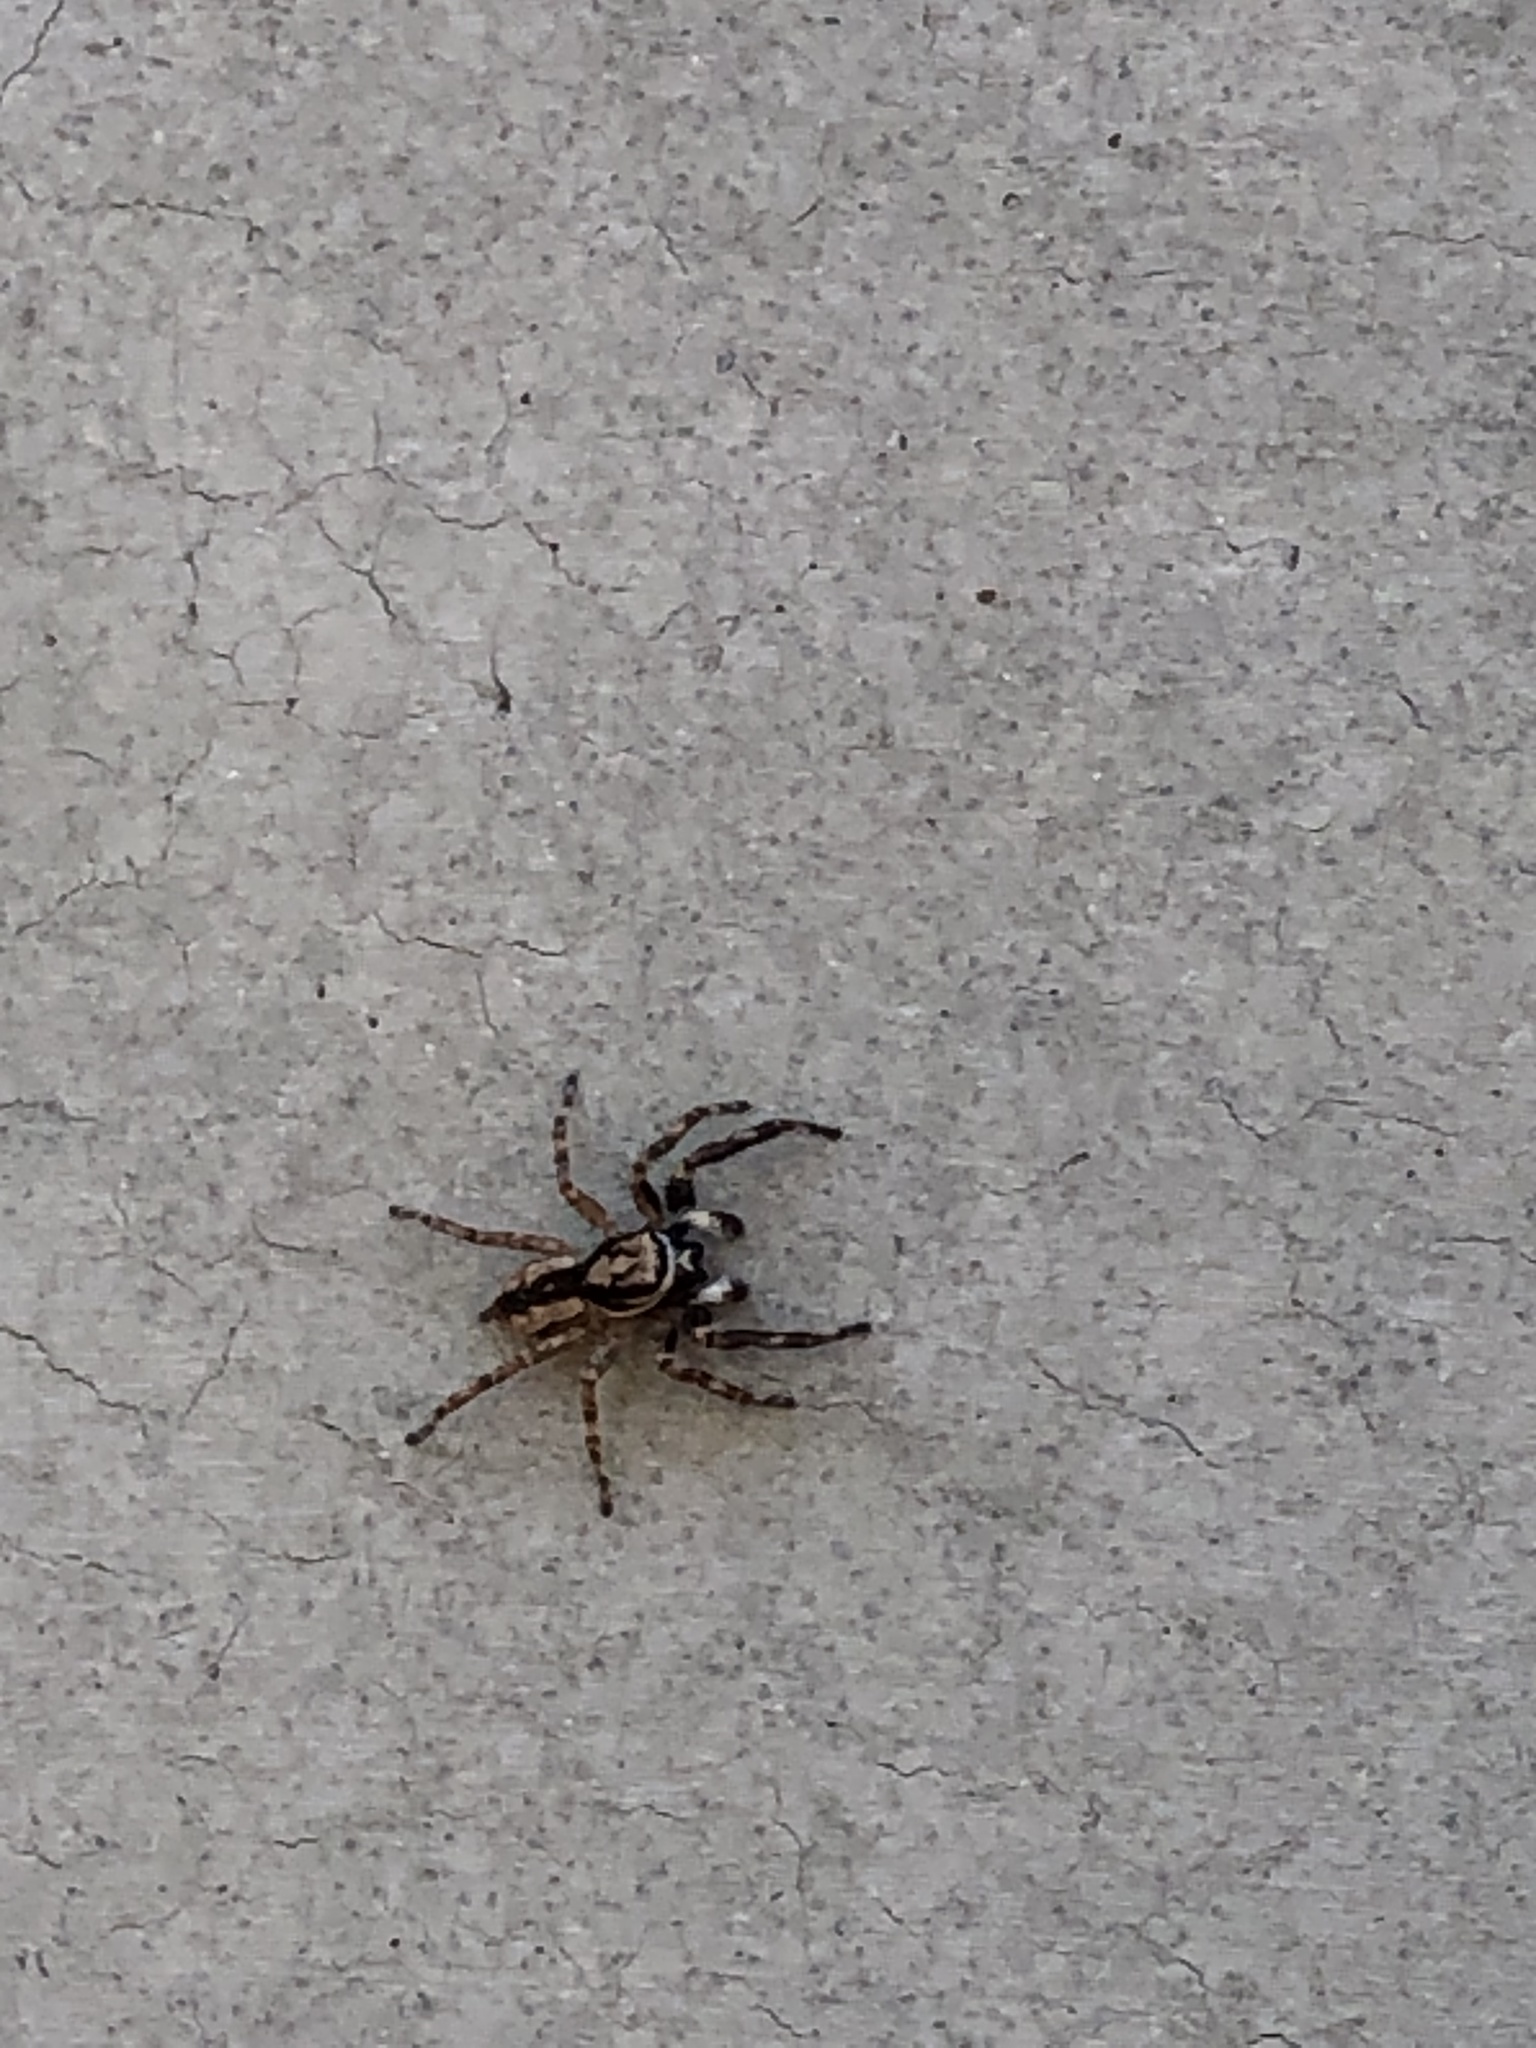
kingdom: Animalia
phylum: Arthropoda
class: Arachnida
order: Araneae
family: Salticidae
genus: Menemerus
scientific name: Menemerus bivittatus
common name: Gray wall jumper
